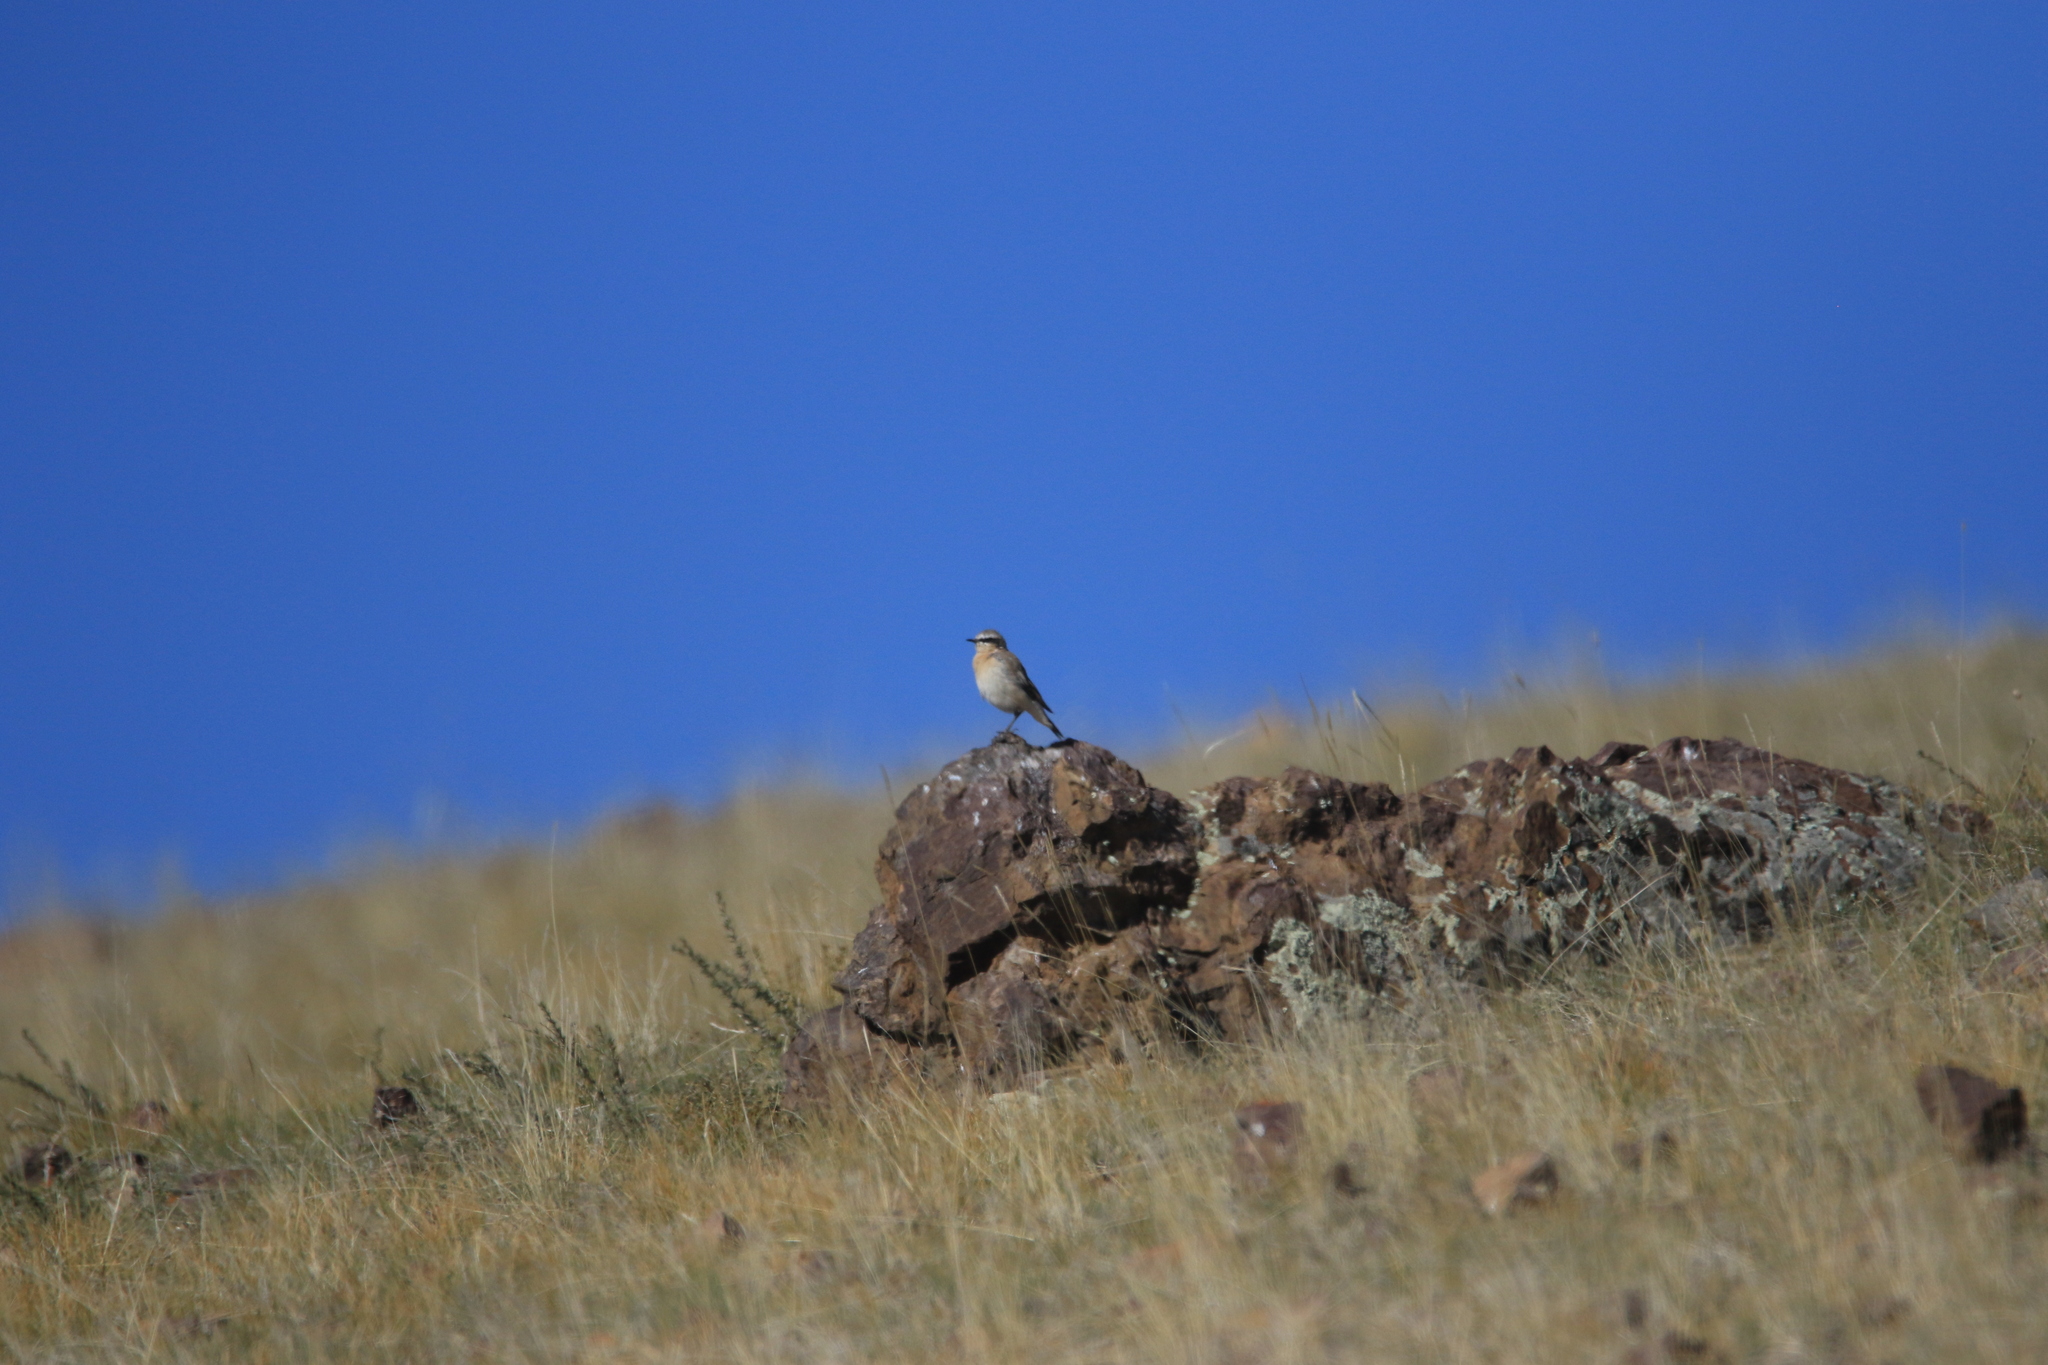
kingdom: Animalia
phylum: Chordata
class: Aves
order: Passeriformes
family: Muscicapidae
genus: Oenanthe
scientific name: Oenanthe isabellina
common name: Isabelline wheatear
